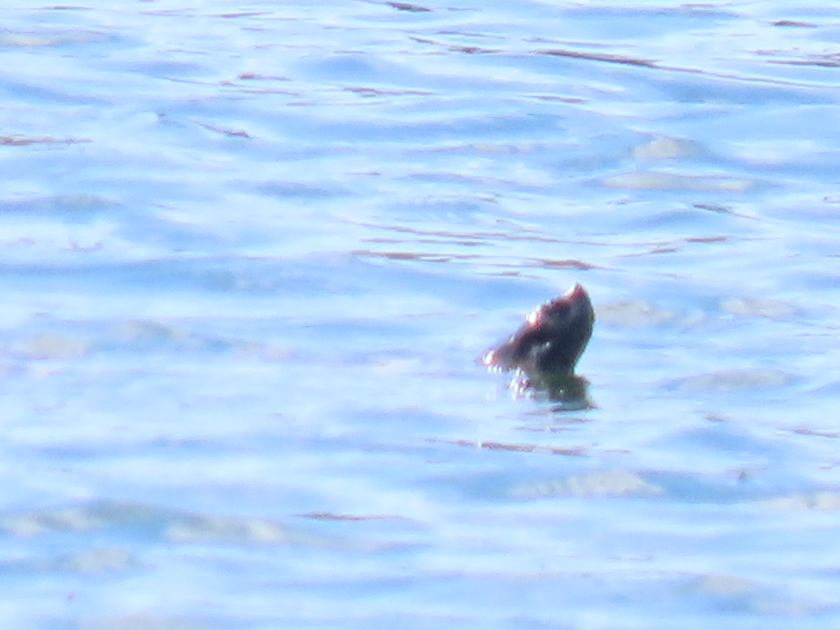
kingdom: Animalia
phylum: Chordata
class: Testudines
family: Emydidae
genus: Trachemys
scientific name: Trachemys scripta
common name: Slider
